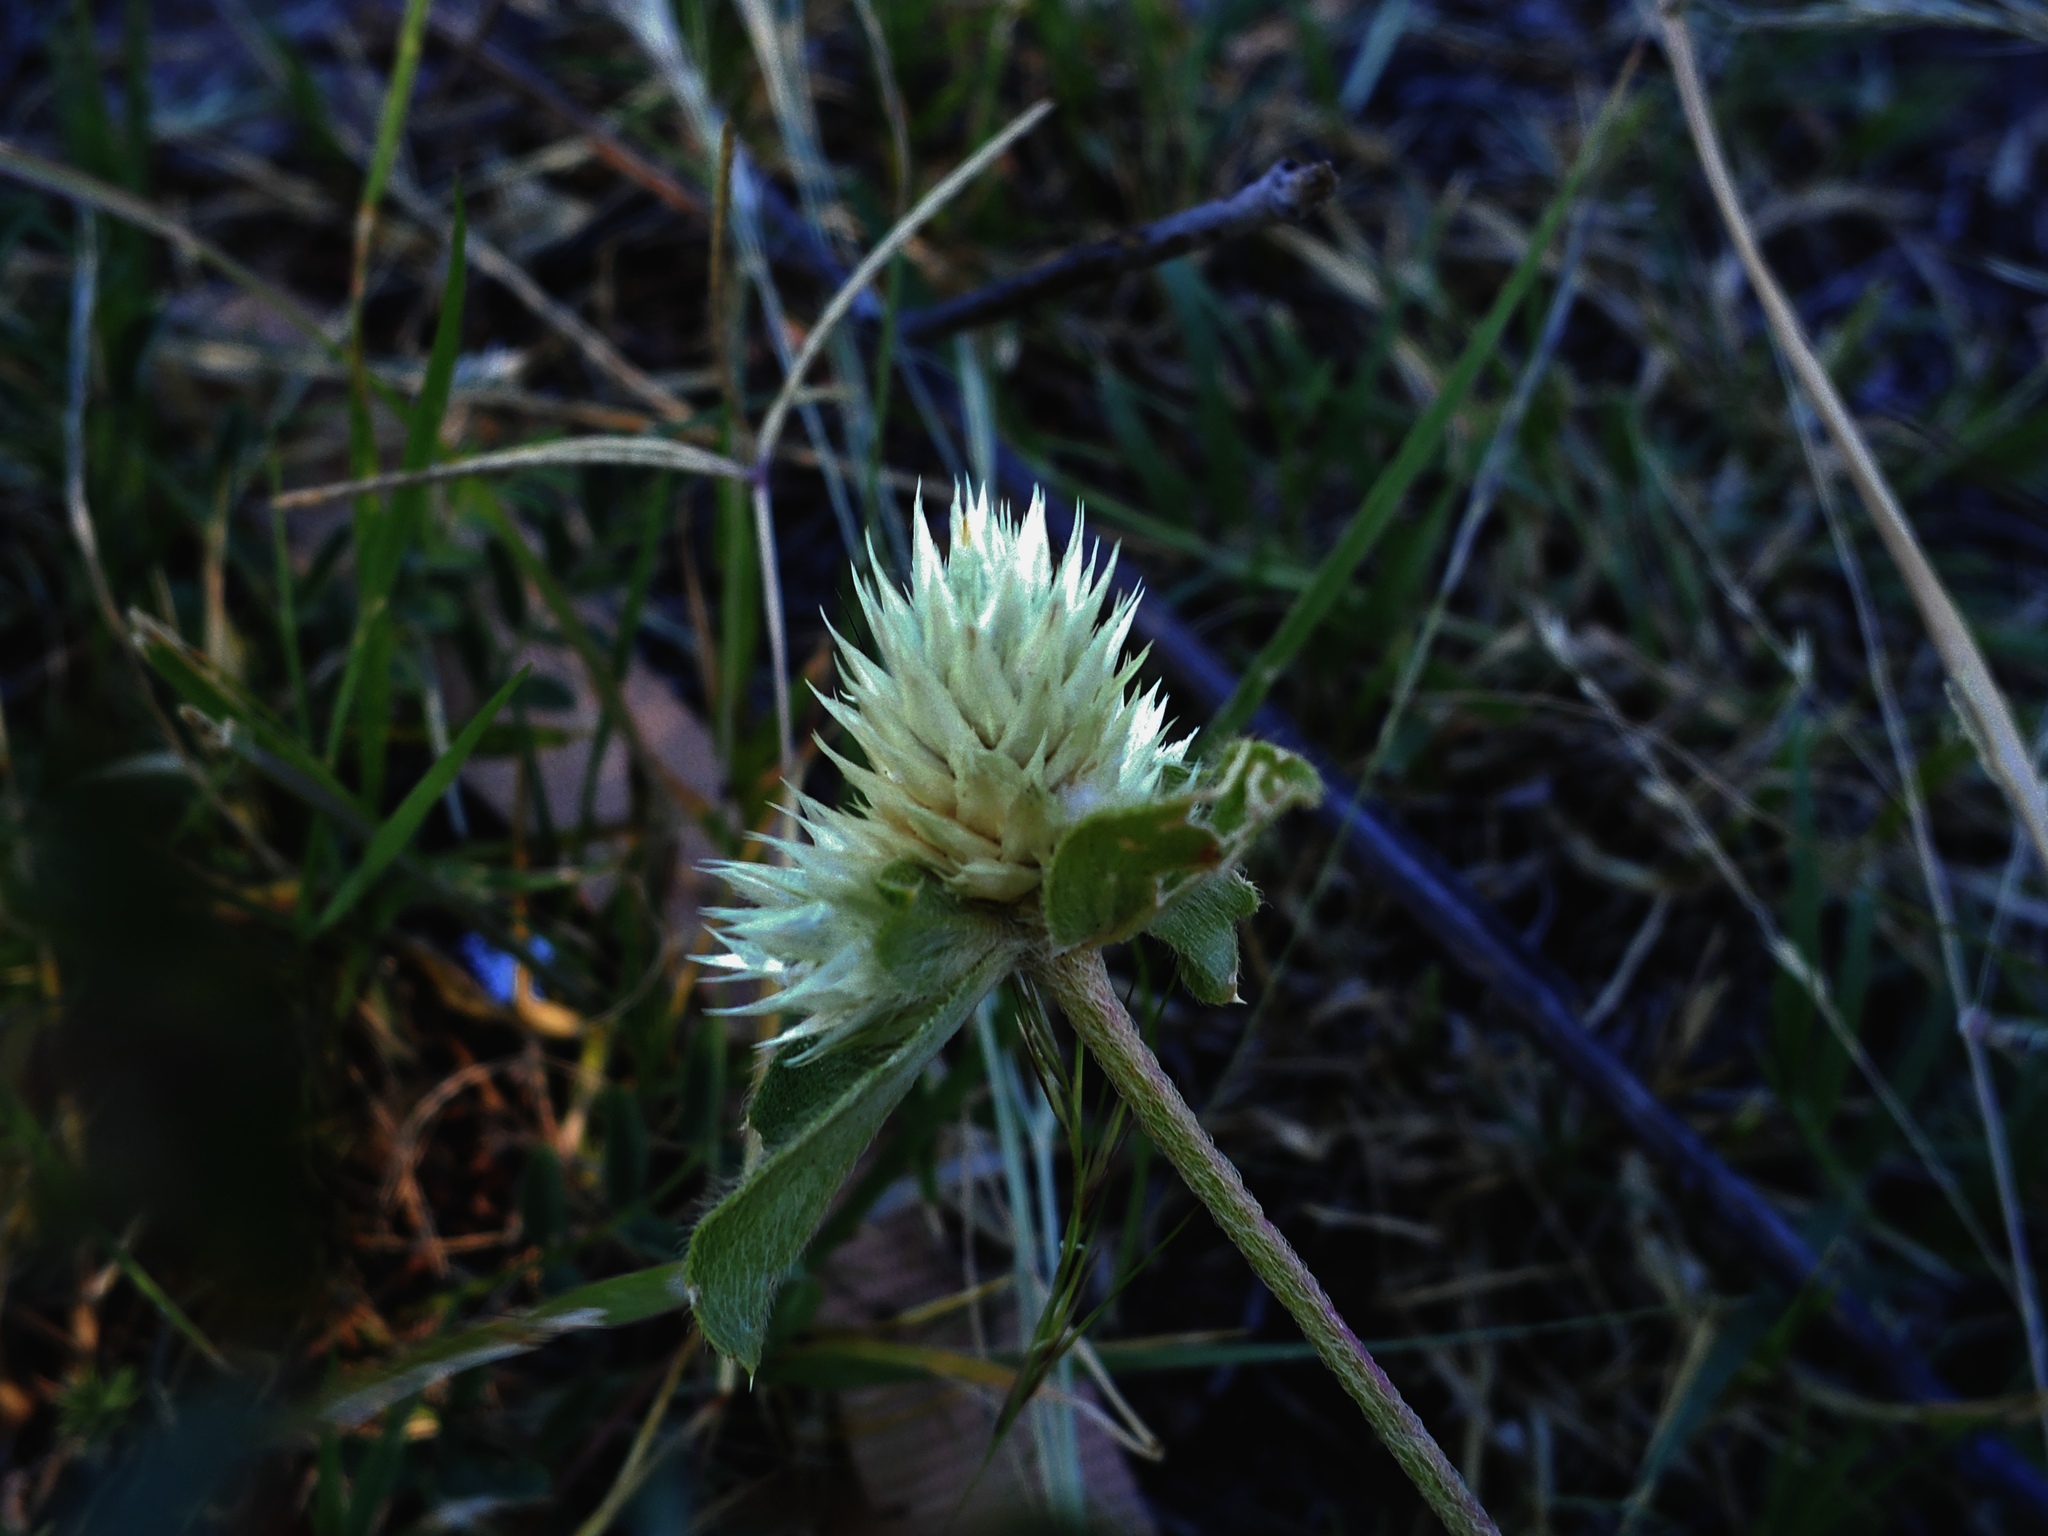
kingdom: Plantae
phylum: Tracheophyta
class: Magnoliopsida
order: Caryophyllales
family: Amaranthaceae
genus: Gomphrena
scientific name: Gomphrena nitida
